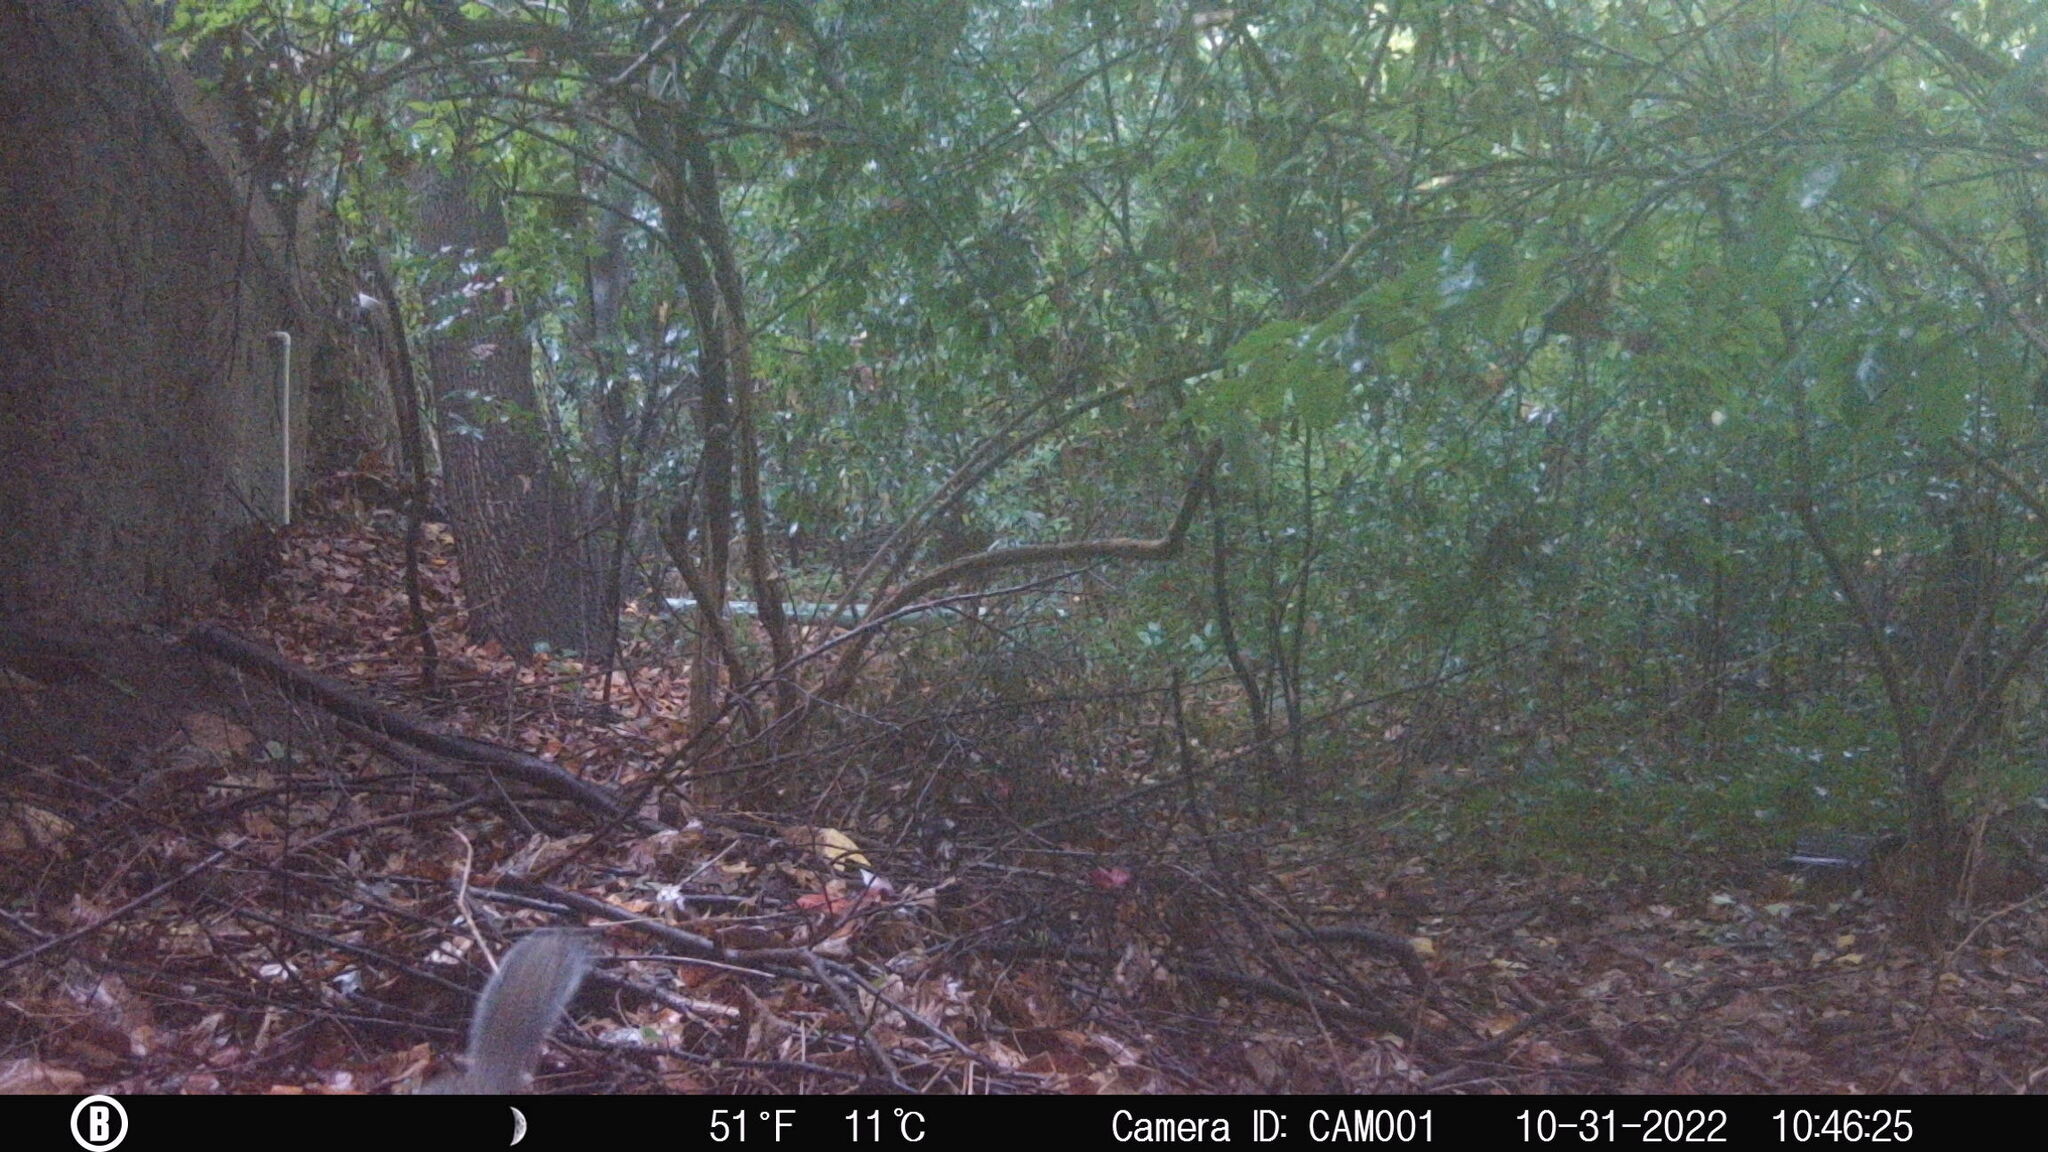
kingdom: Animalia
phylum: Chordata
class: Mammalia
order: Rodentia
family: Sciuridae
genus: Sciurus
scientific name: Sciurus carolinensis
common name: Eastern gray squirrel
